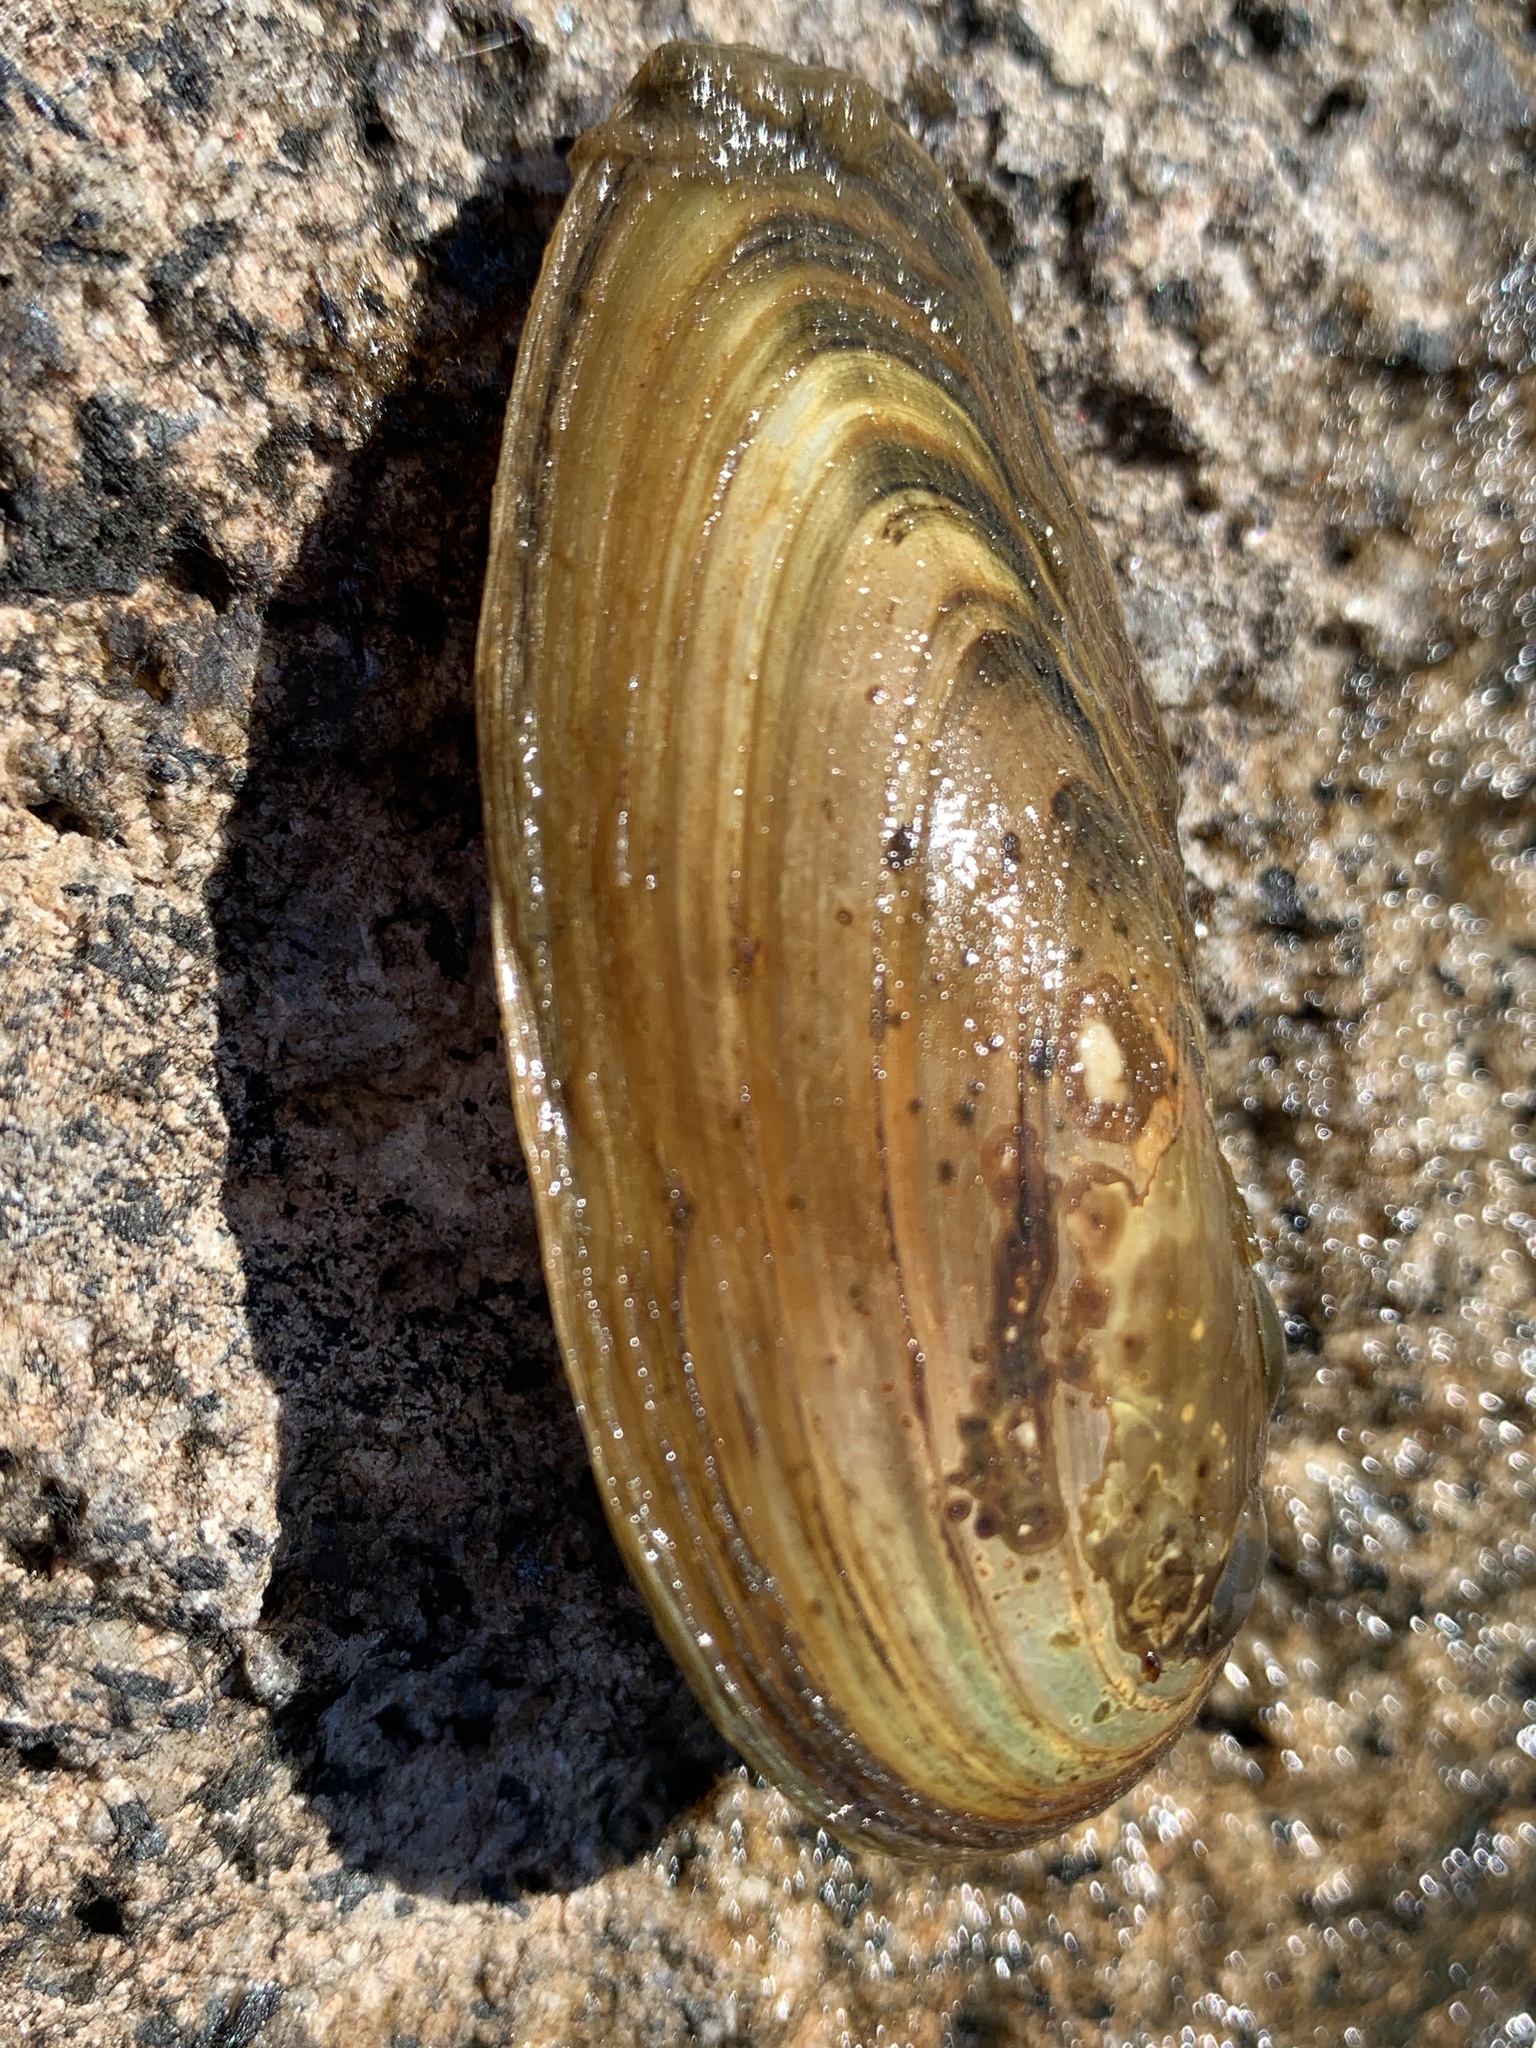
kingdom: Animalia
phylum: Mollusca
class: Bivalvia
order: Unionida
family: Unionidae
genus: Anodonta
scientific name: Anodonta kennerlyi
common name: Western floater
